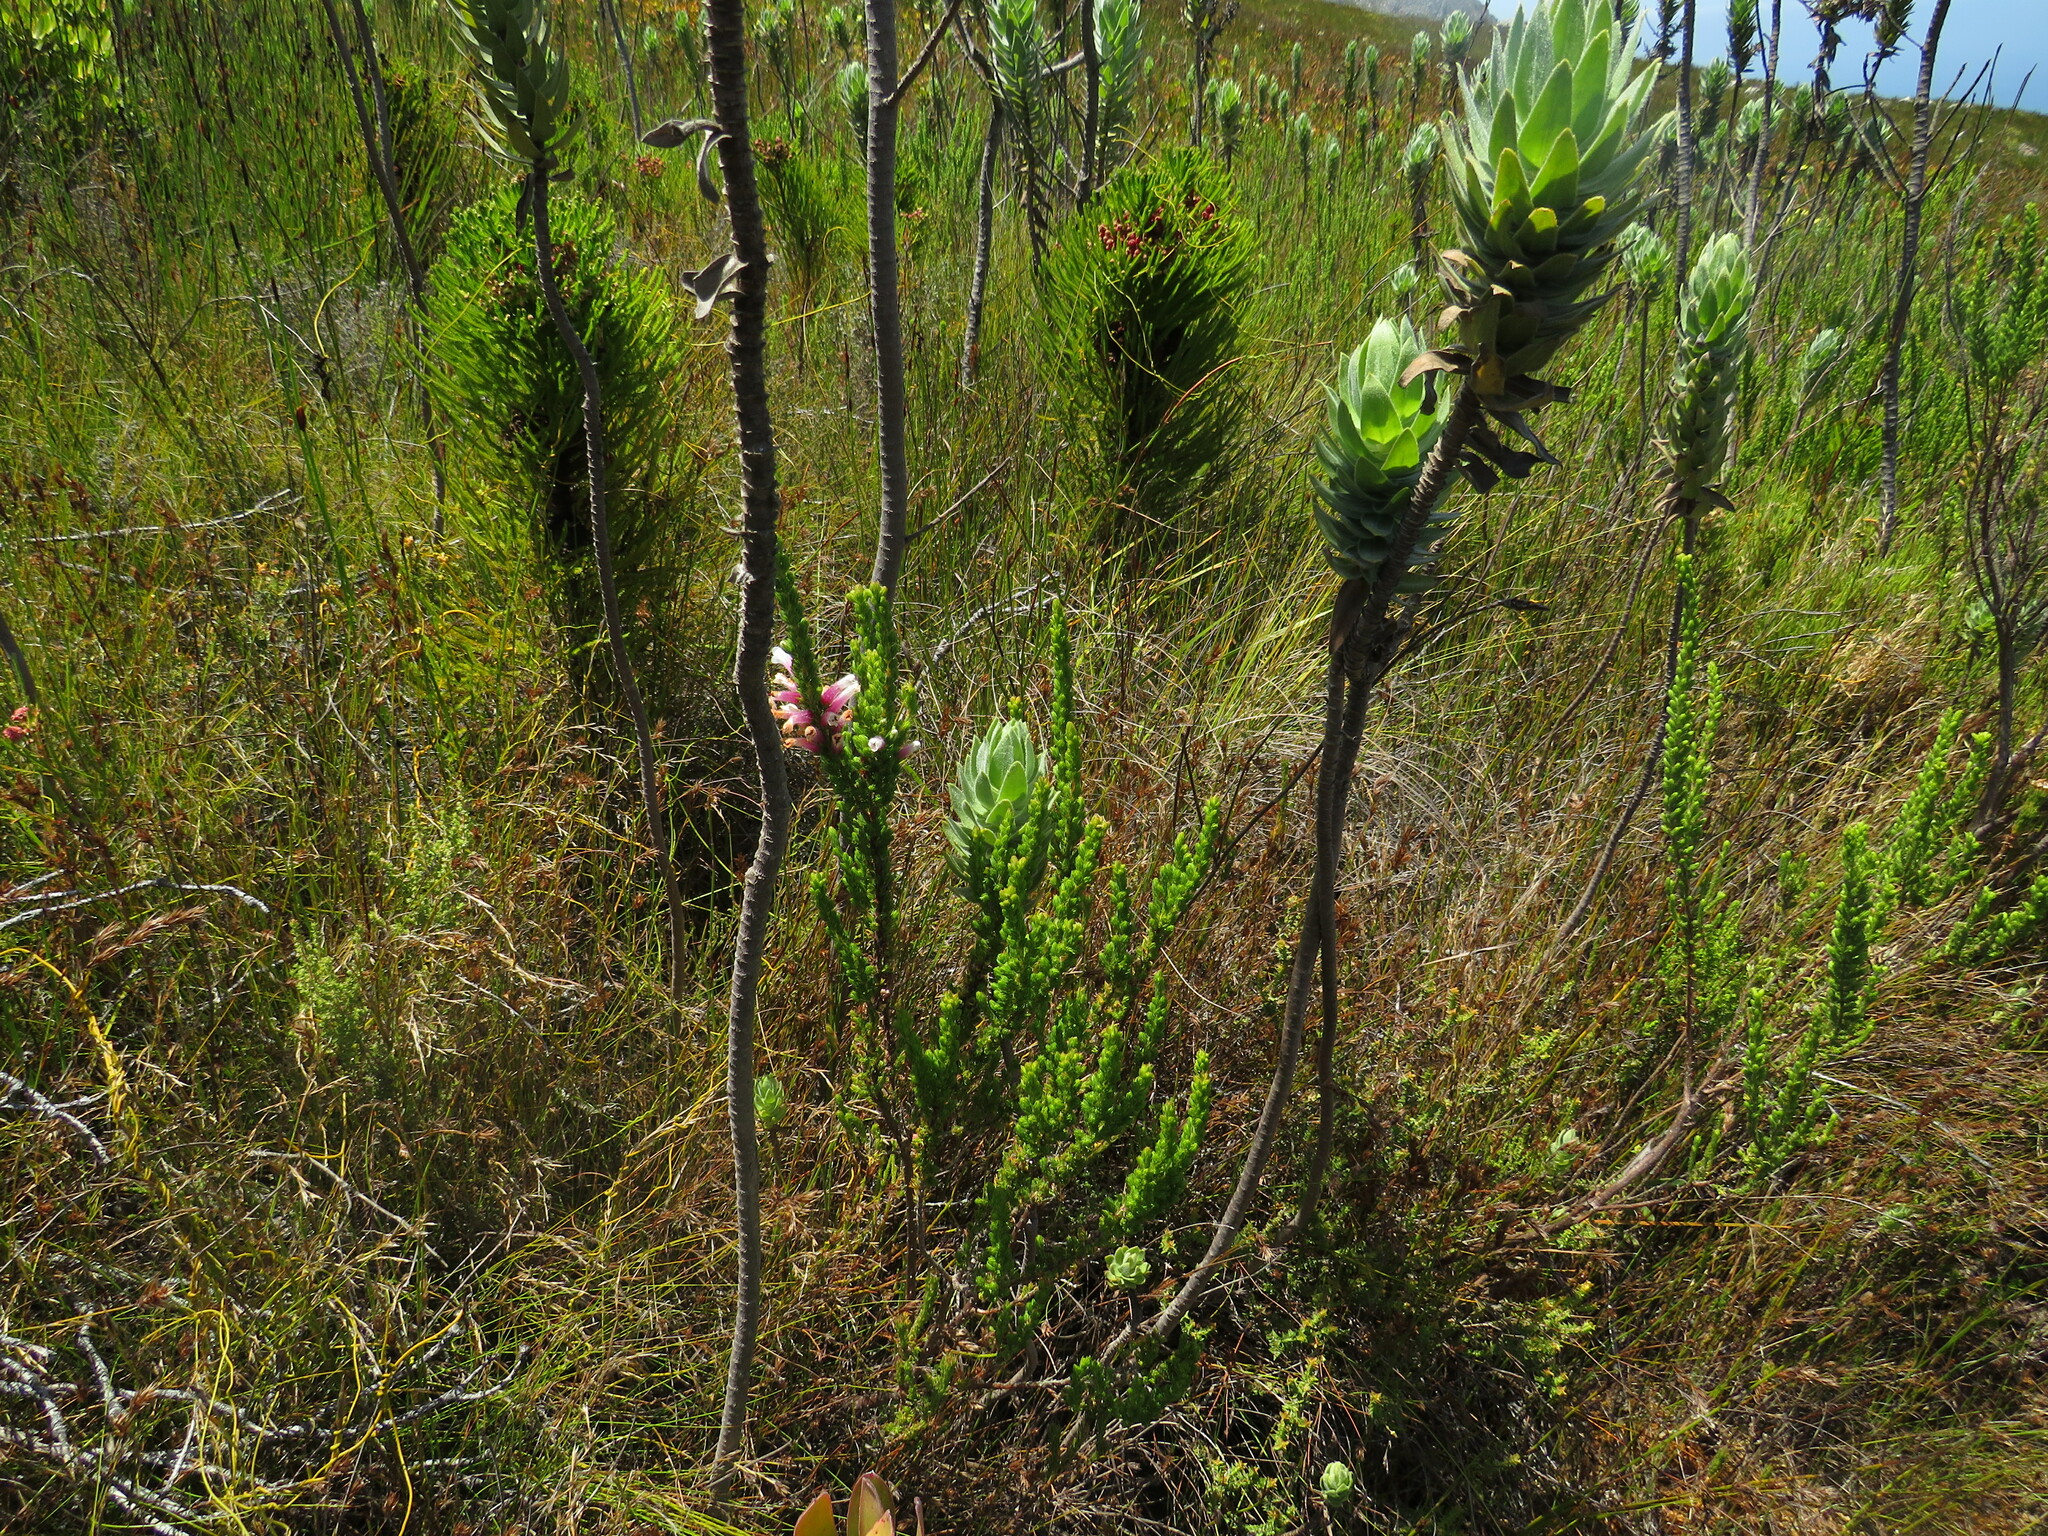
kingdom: Plantae
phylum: Tracheophyta
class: Magnoliopsida
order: Ericales
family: Ericaceae
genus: Erica
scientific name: Erica macowanii
